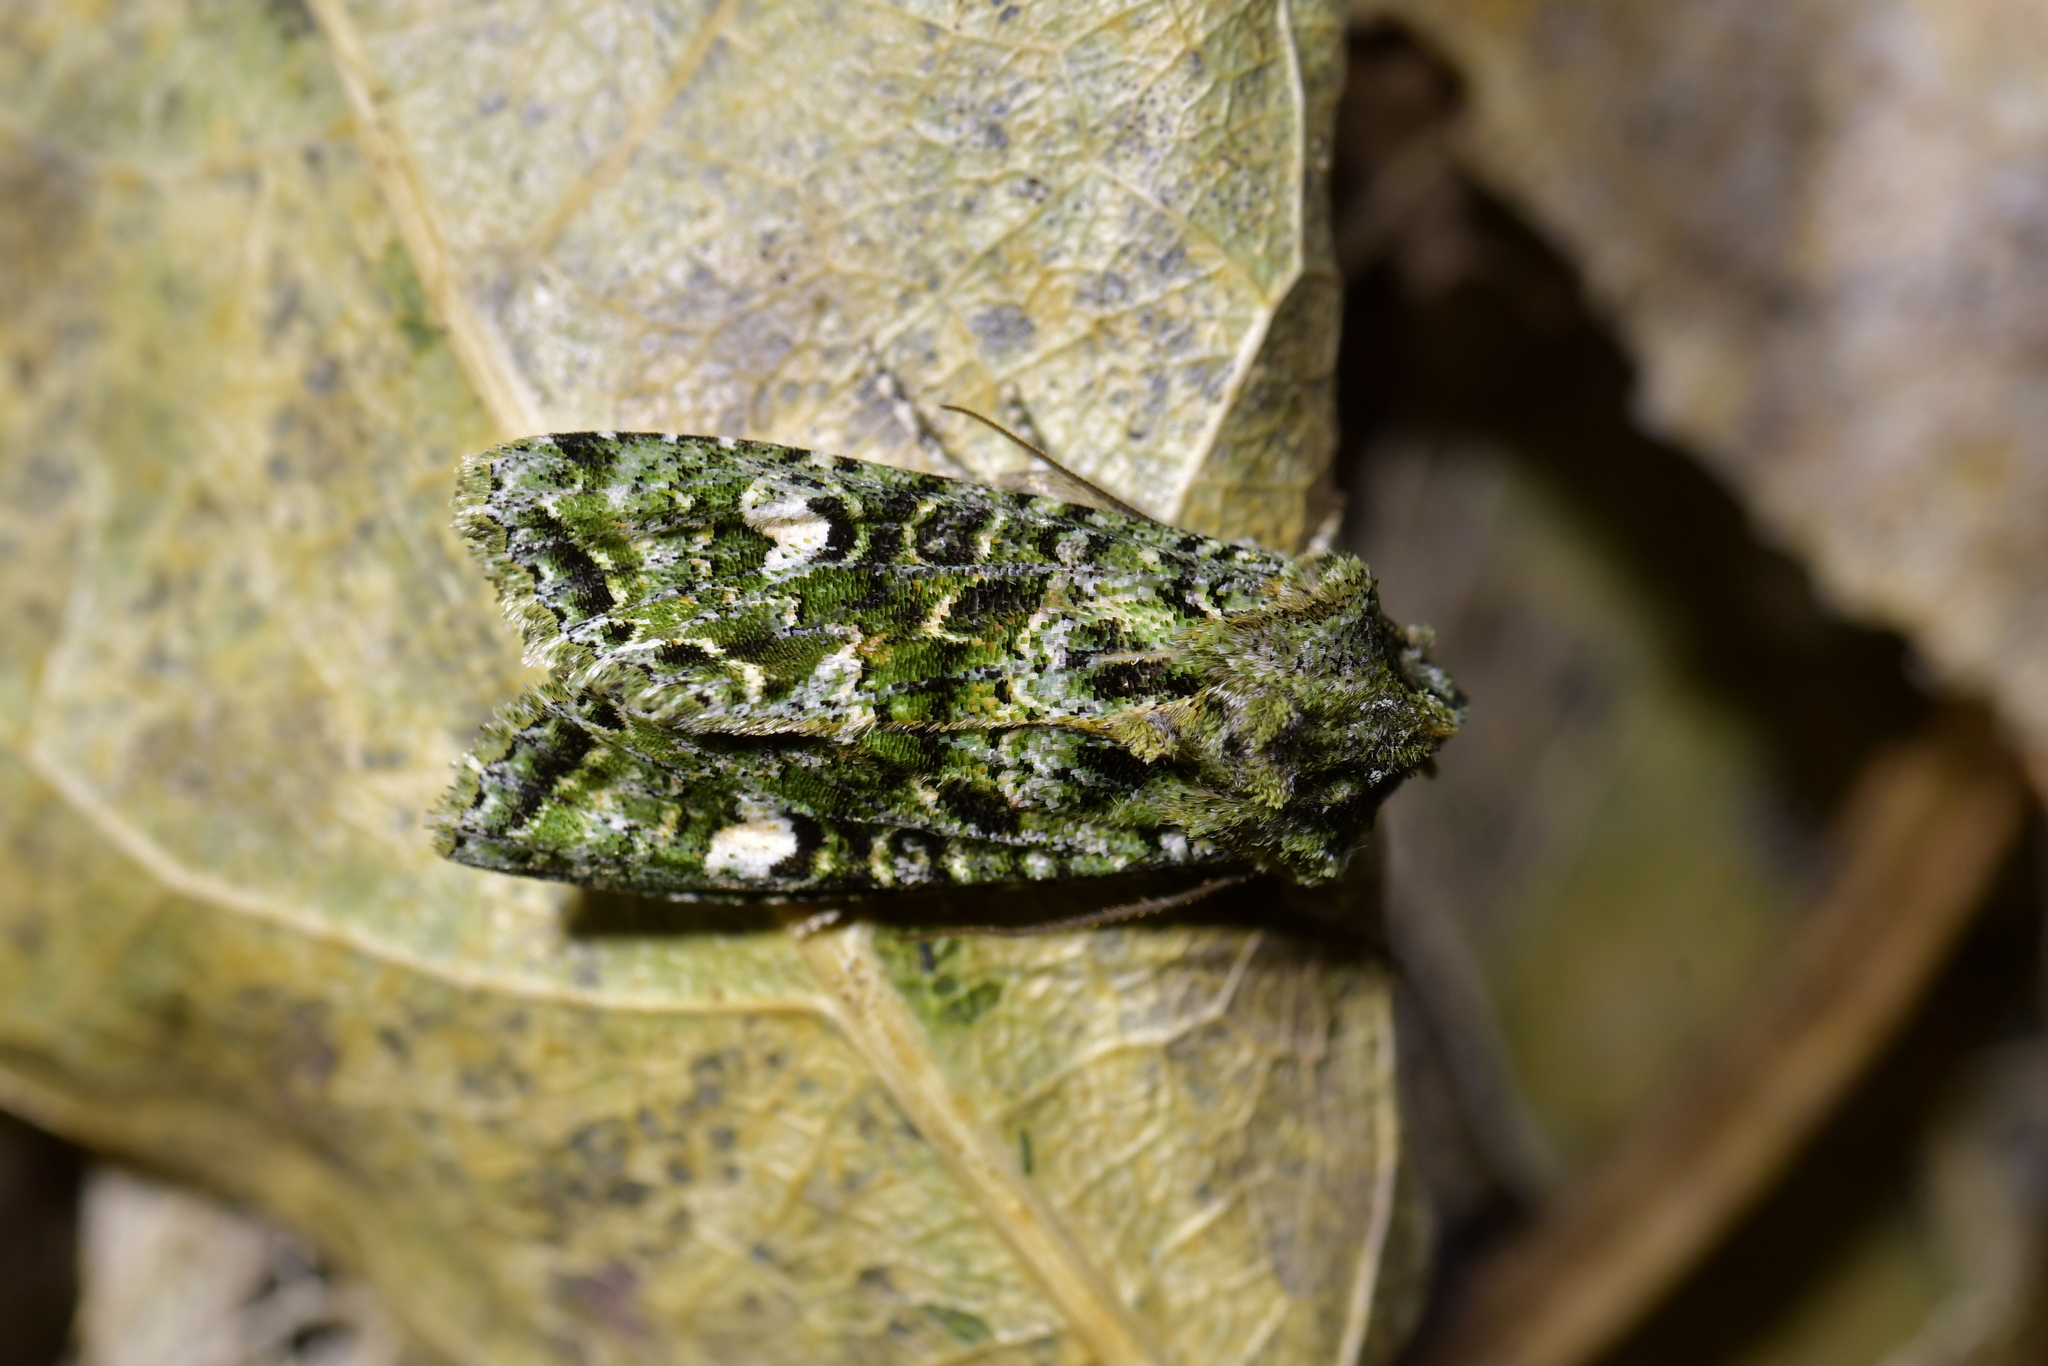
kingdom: Animalia
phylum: Arthropoda
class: Insecta
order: Lepidoptera
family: Noctuidae
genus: Ichneutica
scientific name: Ichneutica
